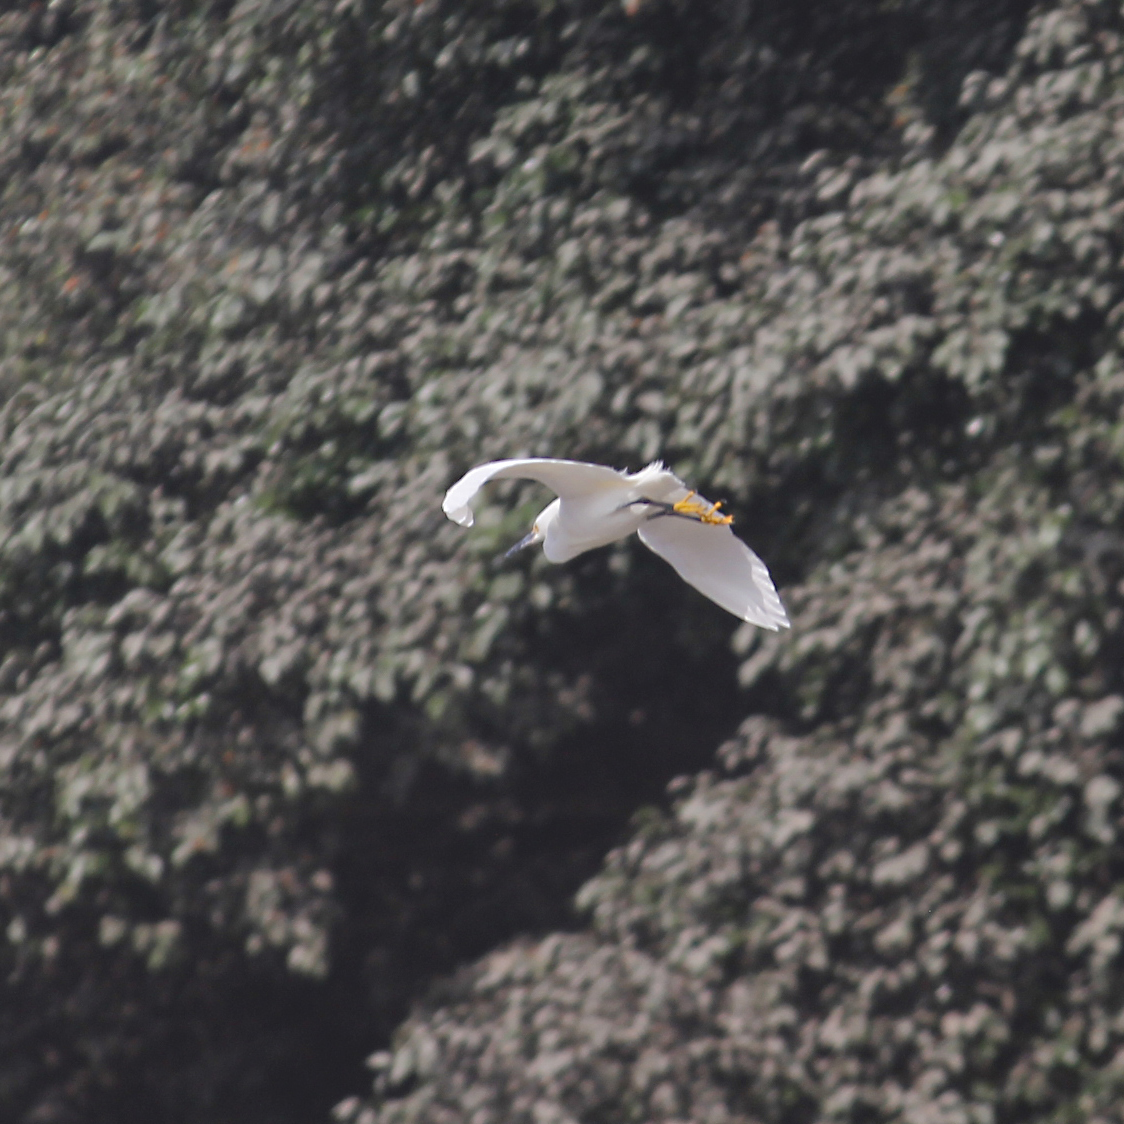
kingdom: Animalia
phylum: Chordata
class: Aves
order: Pelecaniformes
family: Ardeidae
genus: Egretta
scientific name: Egretta thula
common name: Snowy egret
